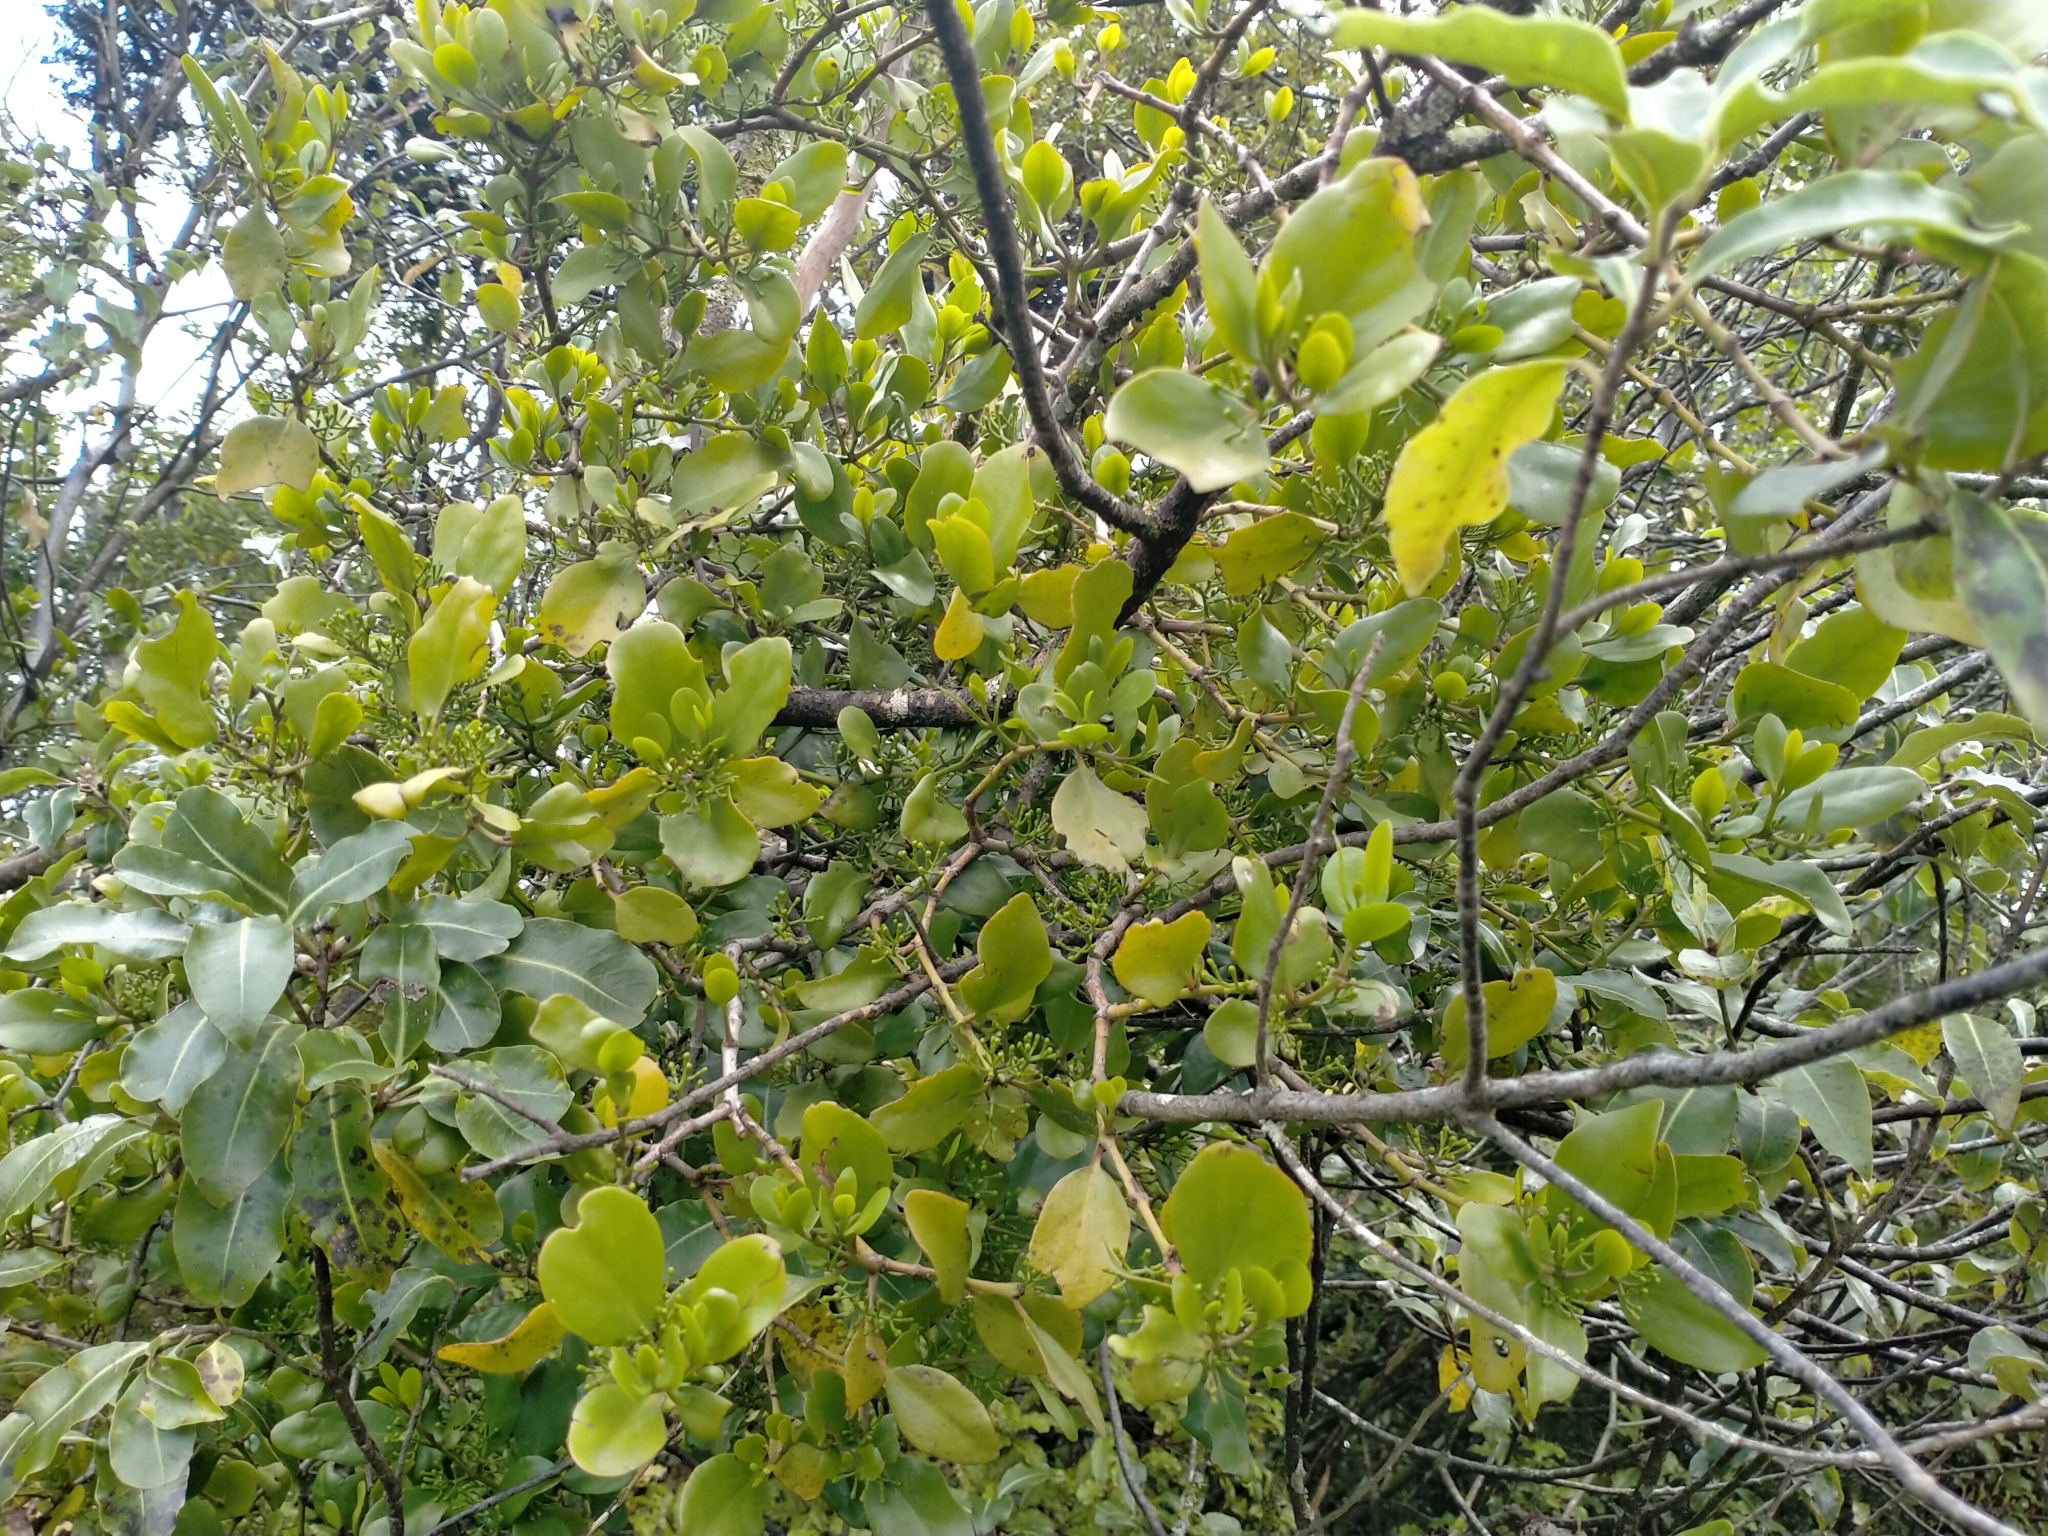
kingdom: Plantae
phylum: Tracheophyta
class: Magnoliopsida
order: Santalales
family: Loranthaceae
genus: Ileostylus
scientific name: Ileostylus micranthus
